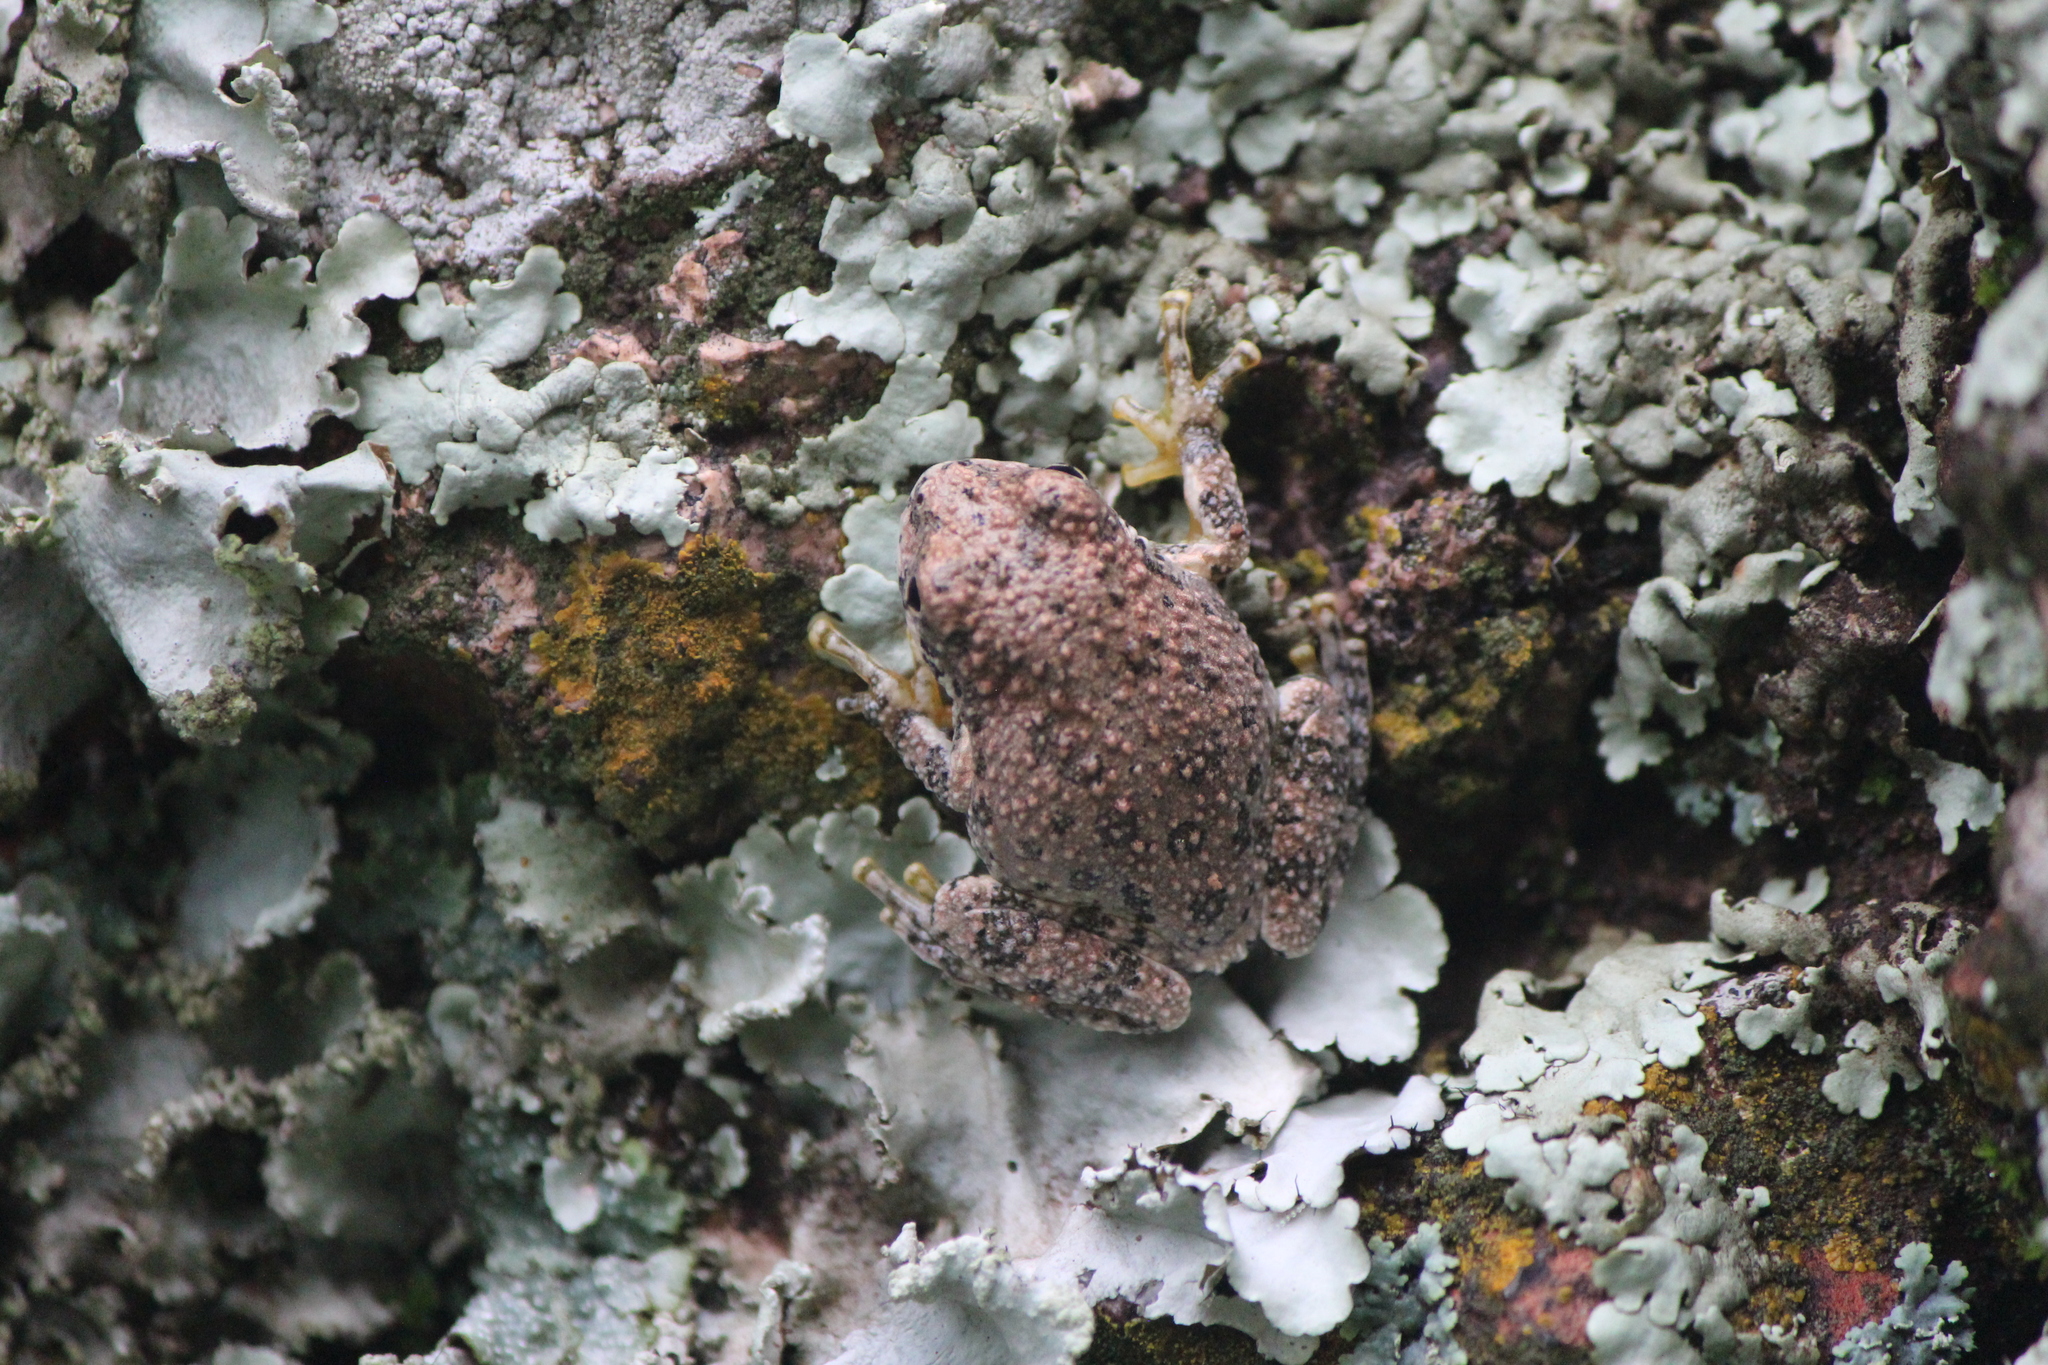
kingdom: Animalia
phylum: Chordata
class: Amphibia
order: Anura
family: Hylidae
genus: Dryophytes
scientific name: Dryophytes arenicolor
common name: Canyon treefrog
